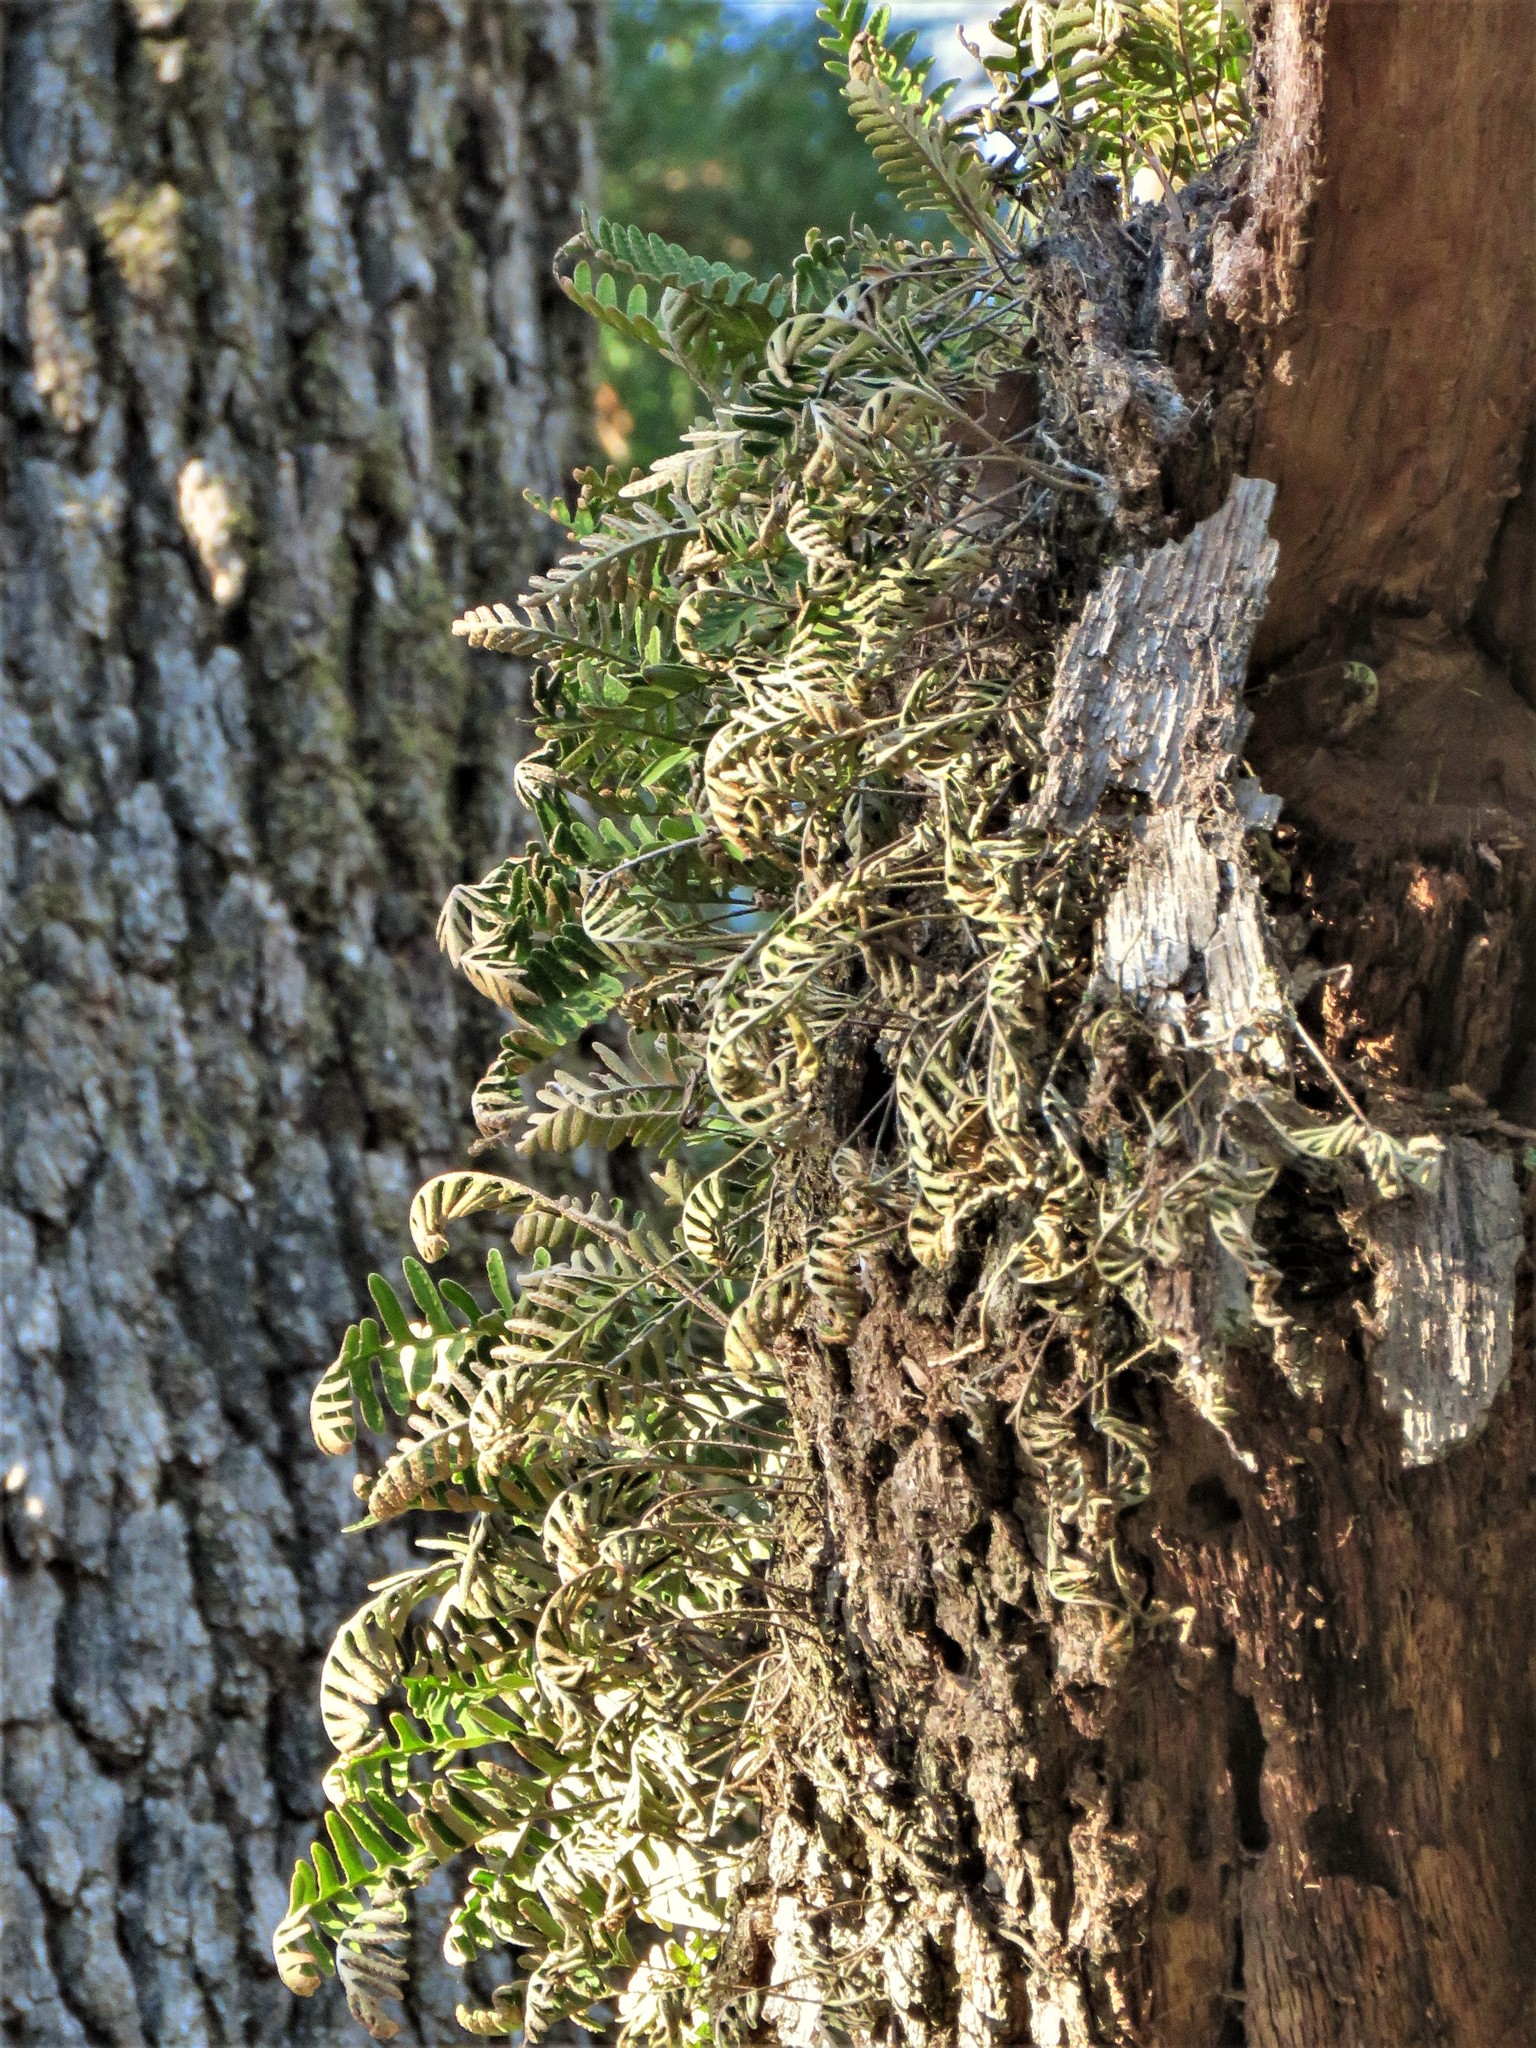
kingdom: Plantae
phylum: Tracheophyta
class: Polypodiopsida
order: Polypodiales
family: Polypodiaceae
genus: Pleopeltis
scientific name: Pleopeltis michauxiana
